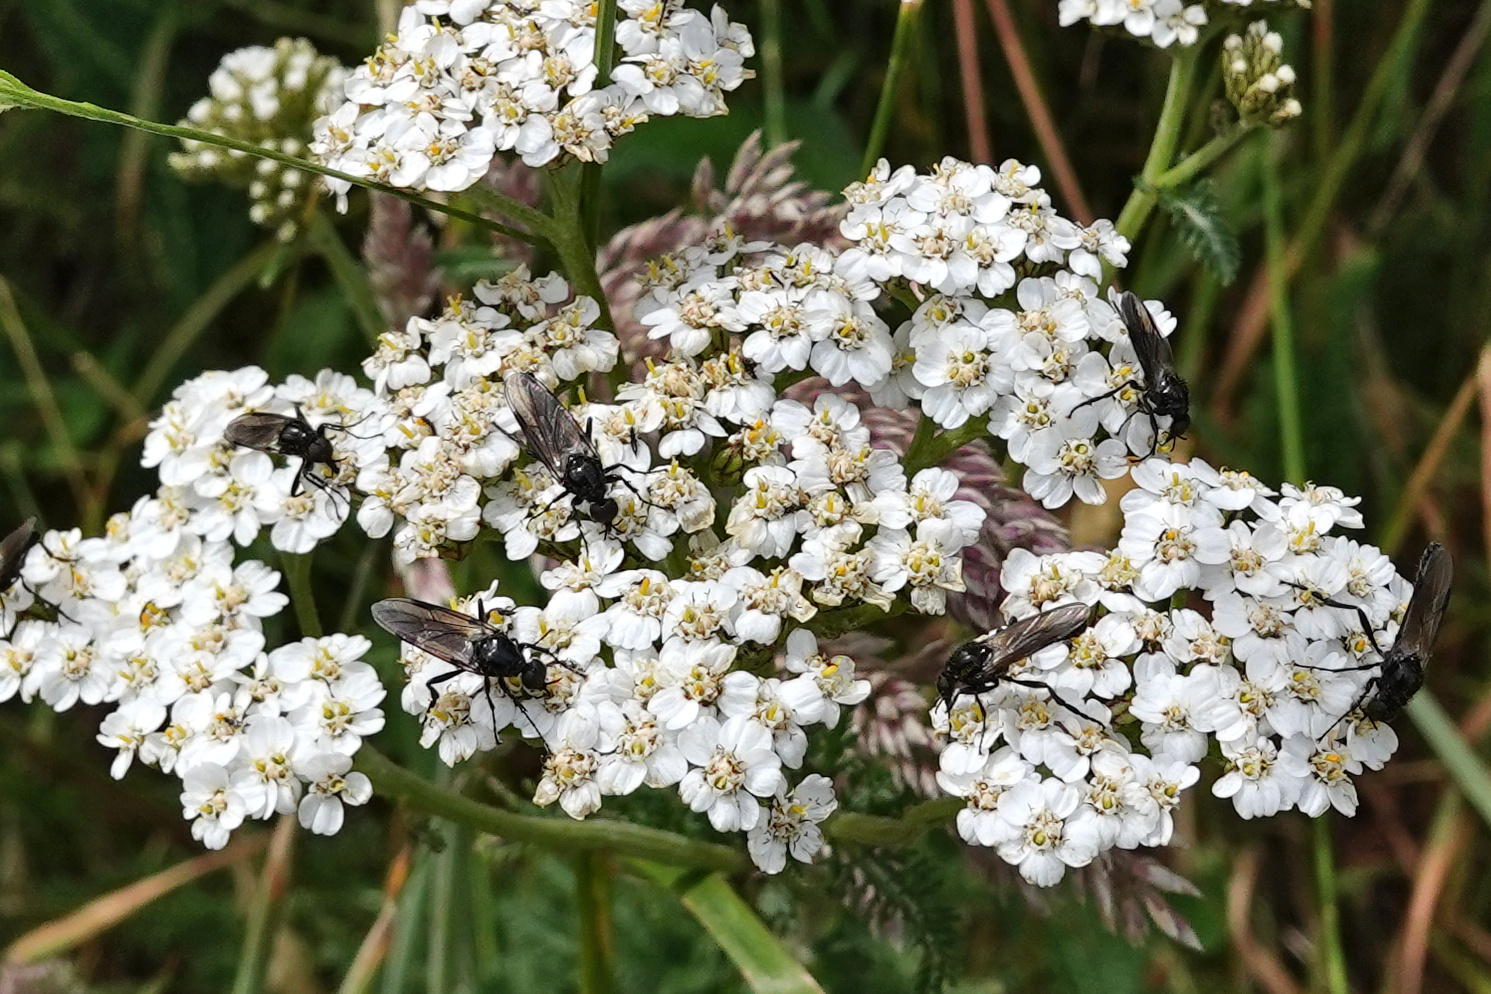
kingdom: Animalia
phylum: Arthropoda
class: Insecta
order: Diptera
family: Bibionidae
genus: Dilophus
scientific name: Dilophus nigrostigma
